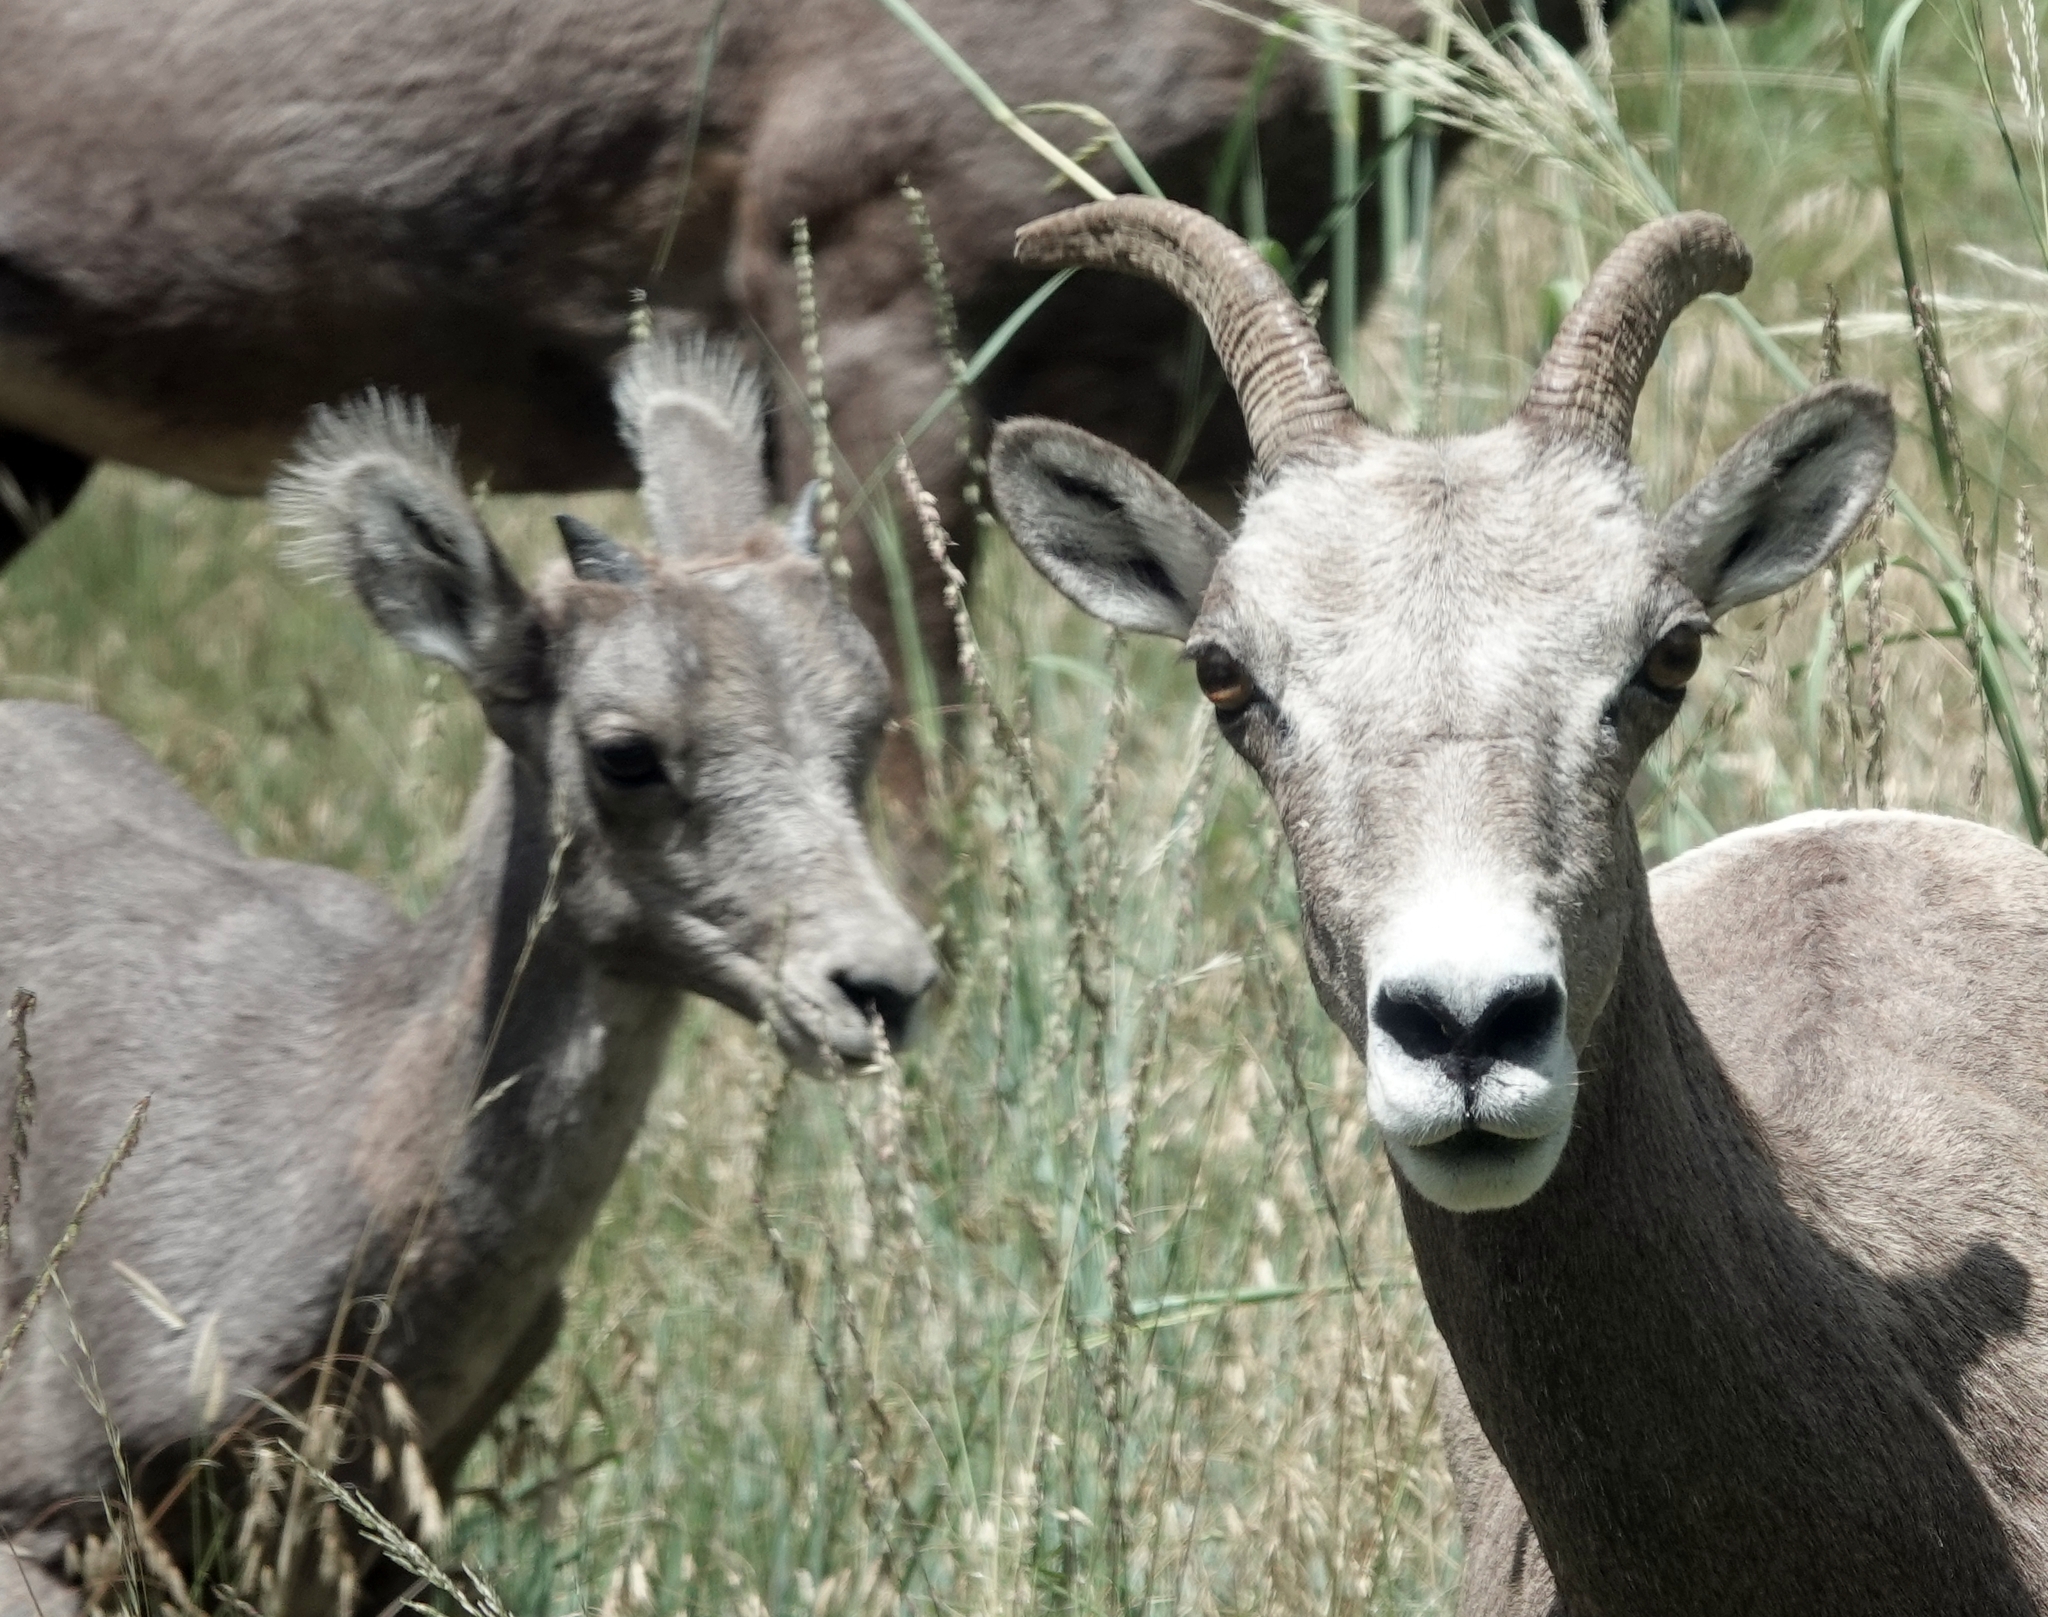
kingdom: Animalia
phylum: Chordata
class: Mammalia
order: Artiodactyla
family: Bovidae
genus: Ovis
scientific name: Ovis canadensis
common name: Bighorn sheep
